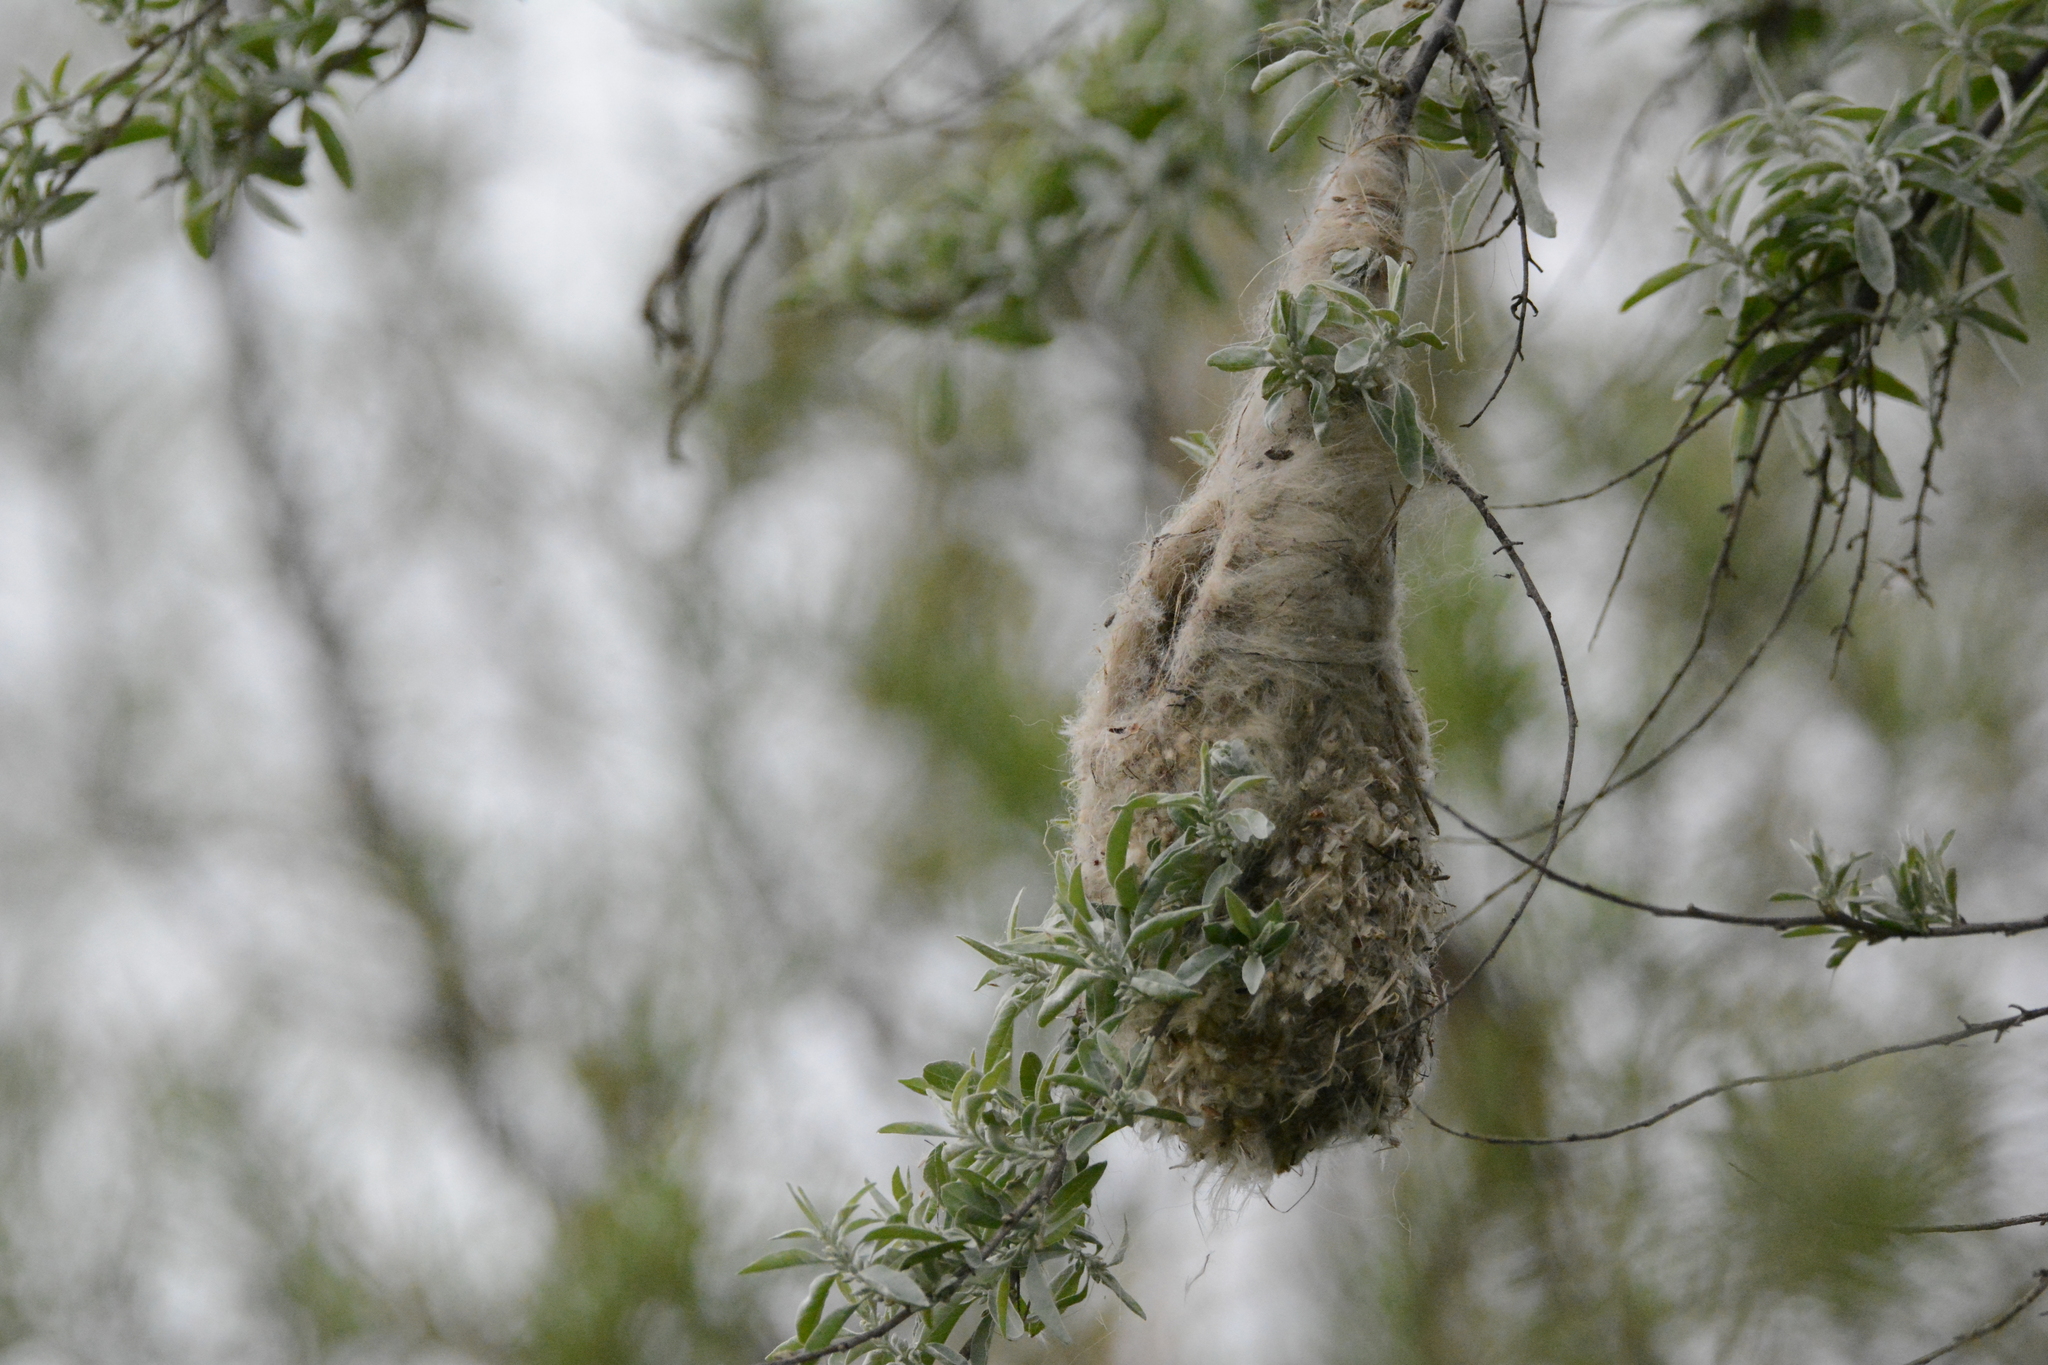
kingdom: Animalia
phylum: Chordata
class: Aves
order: Passeriformes
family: Remizidae
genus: Remiz
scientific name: Remiz pendulinus
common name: Eurasian penduline tit
